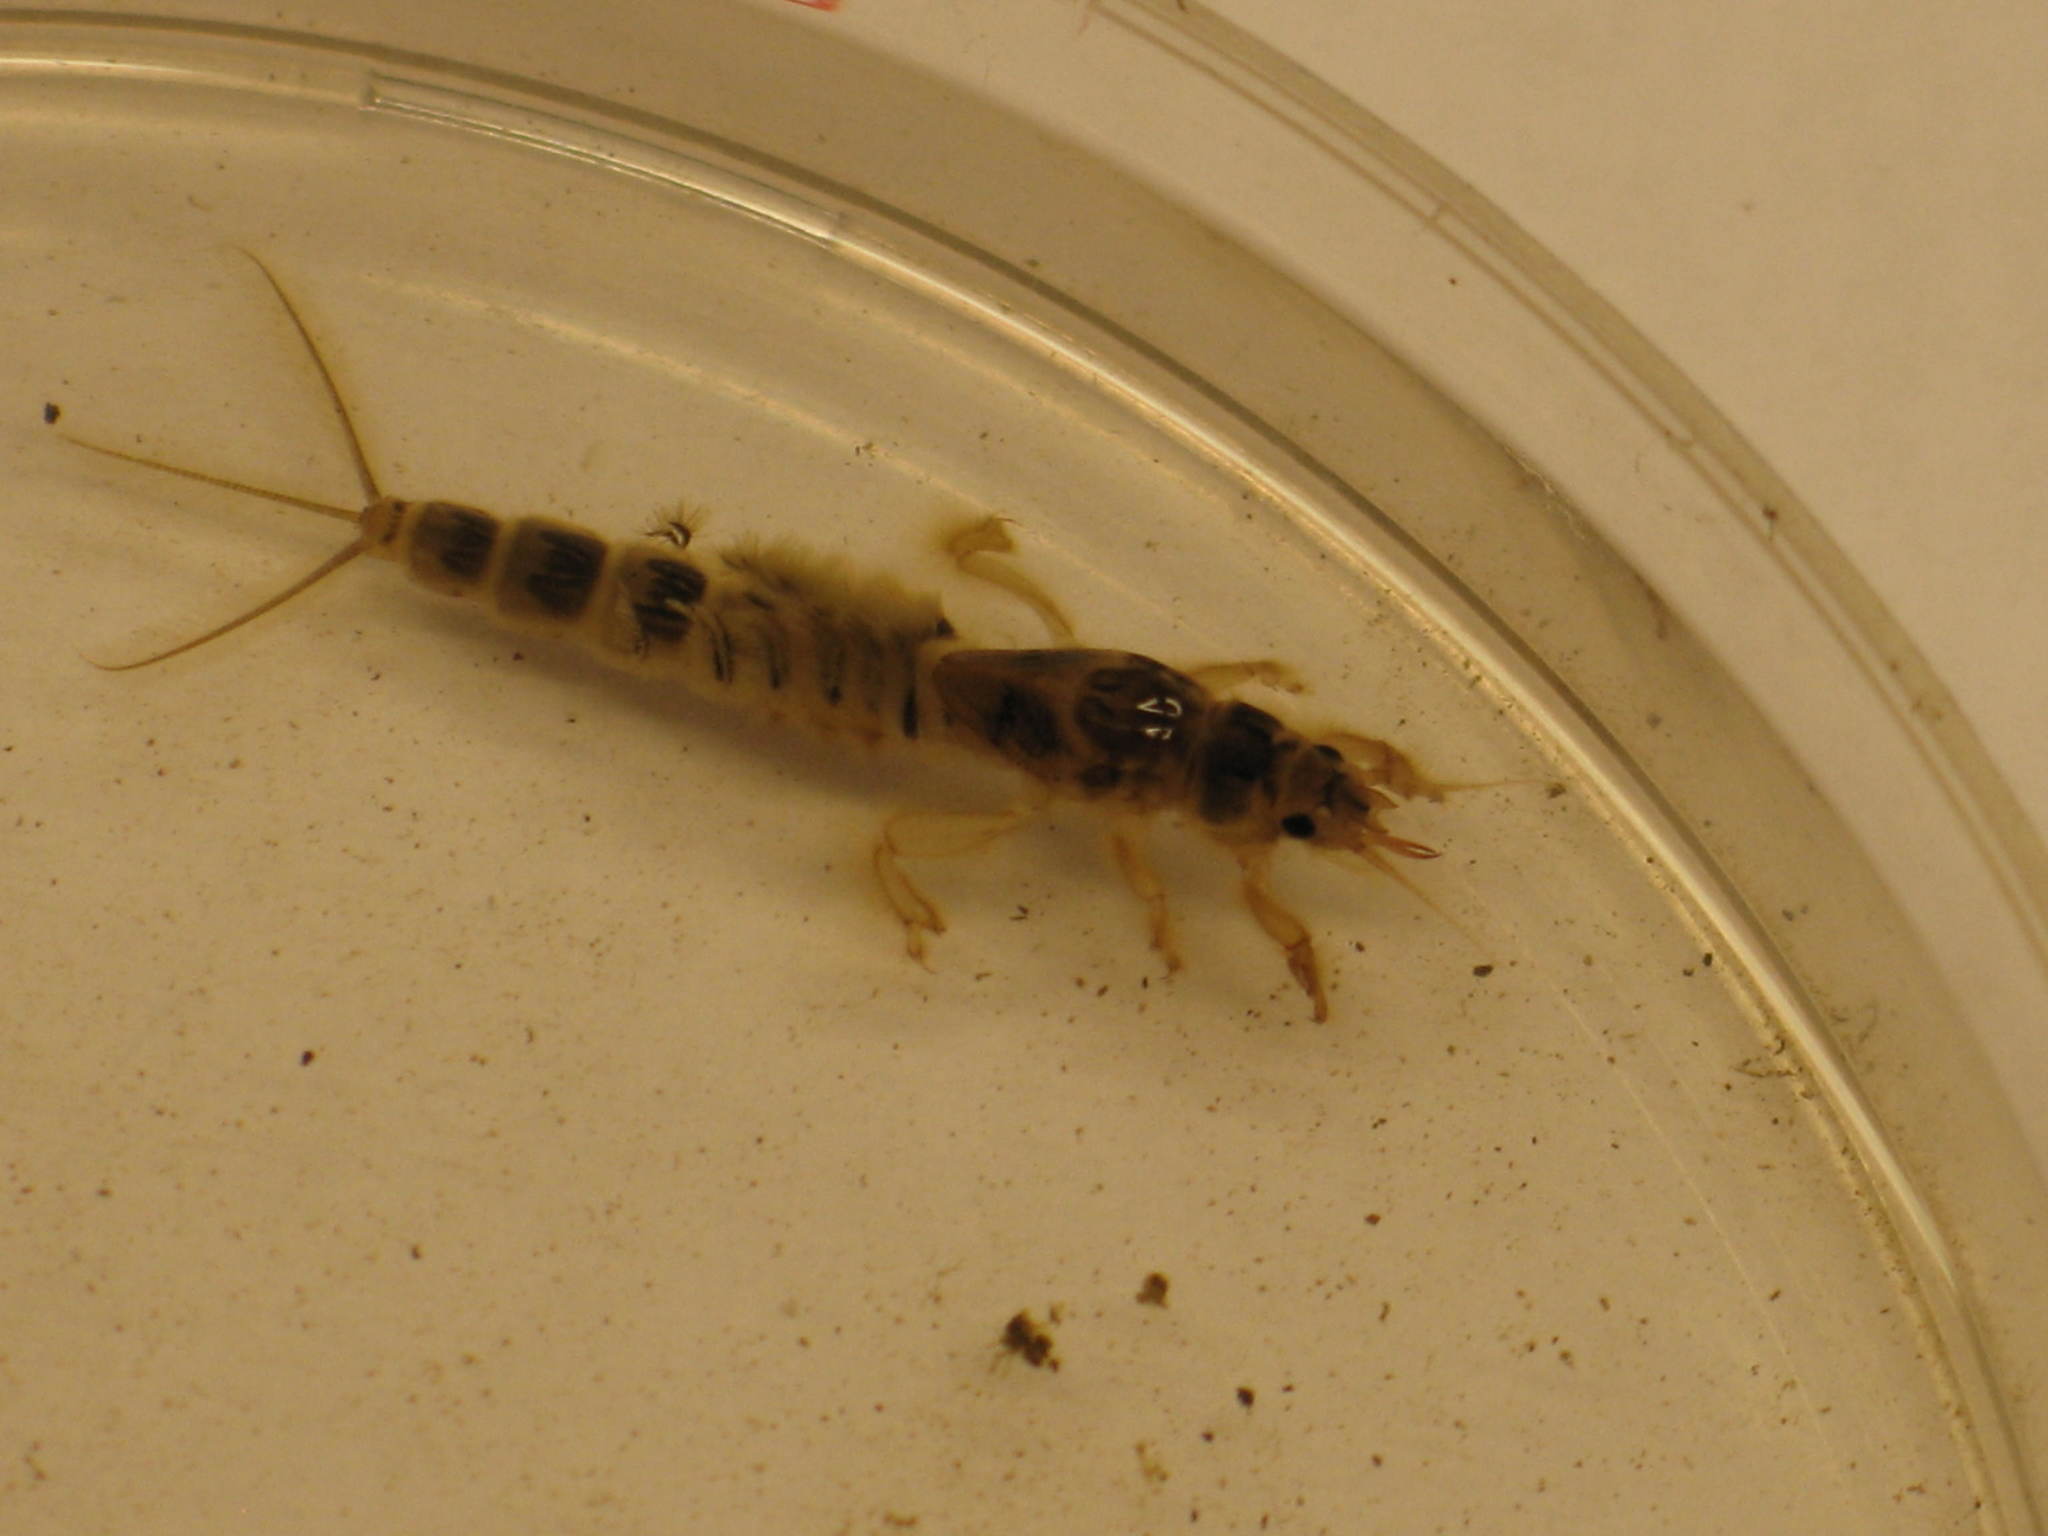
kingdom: Animalia
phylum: Arthropoda
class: Insecta
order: Ephemeroptera
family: Ephemeridae
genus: Ephemera
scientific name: Ephemera danica
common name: Green dun
